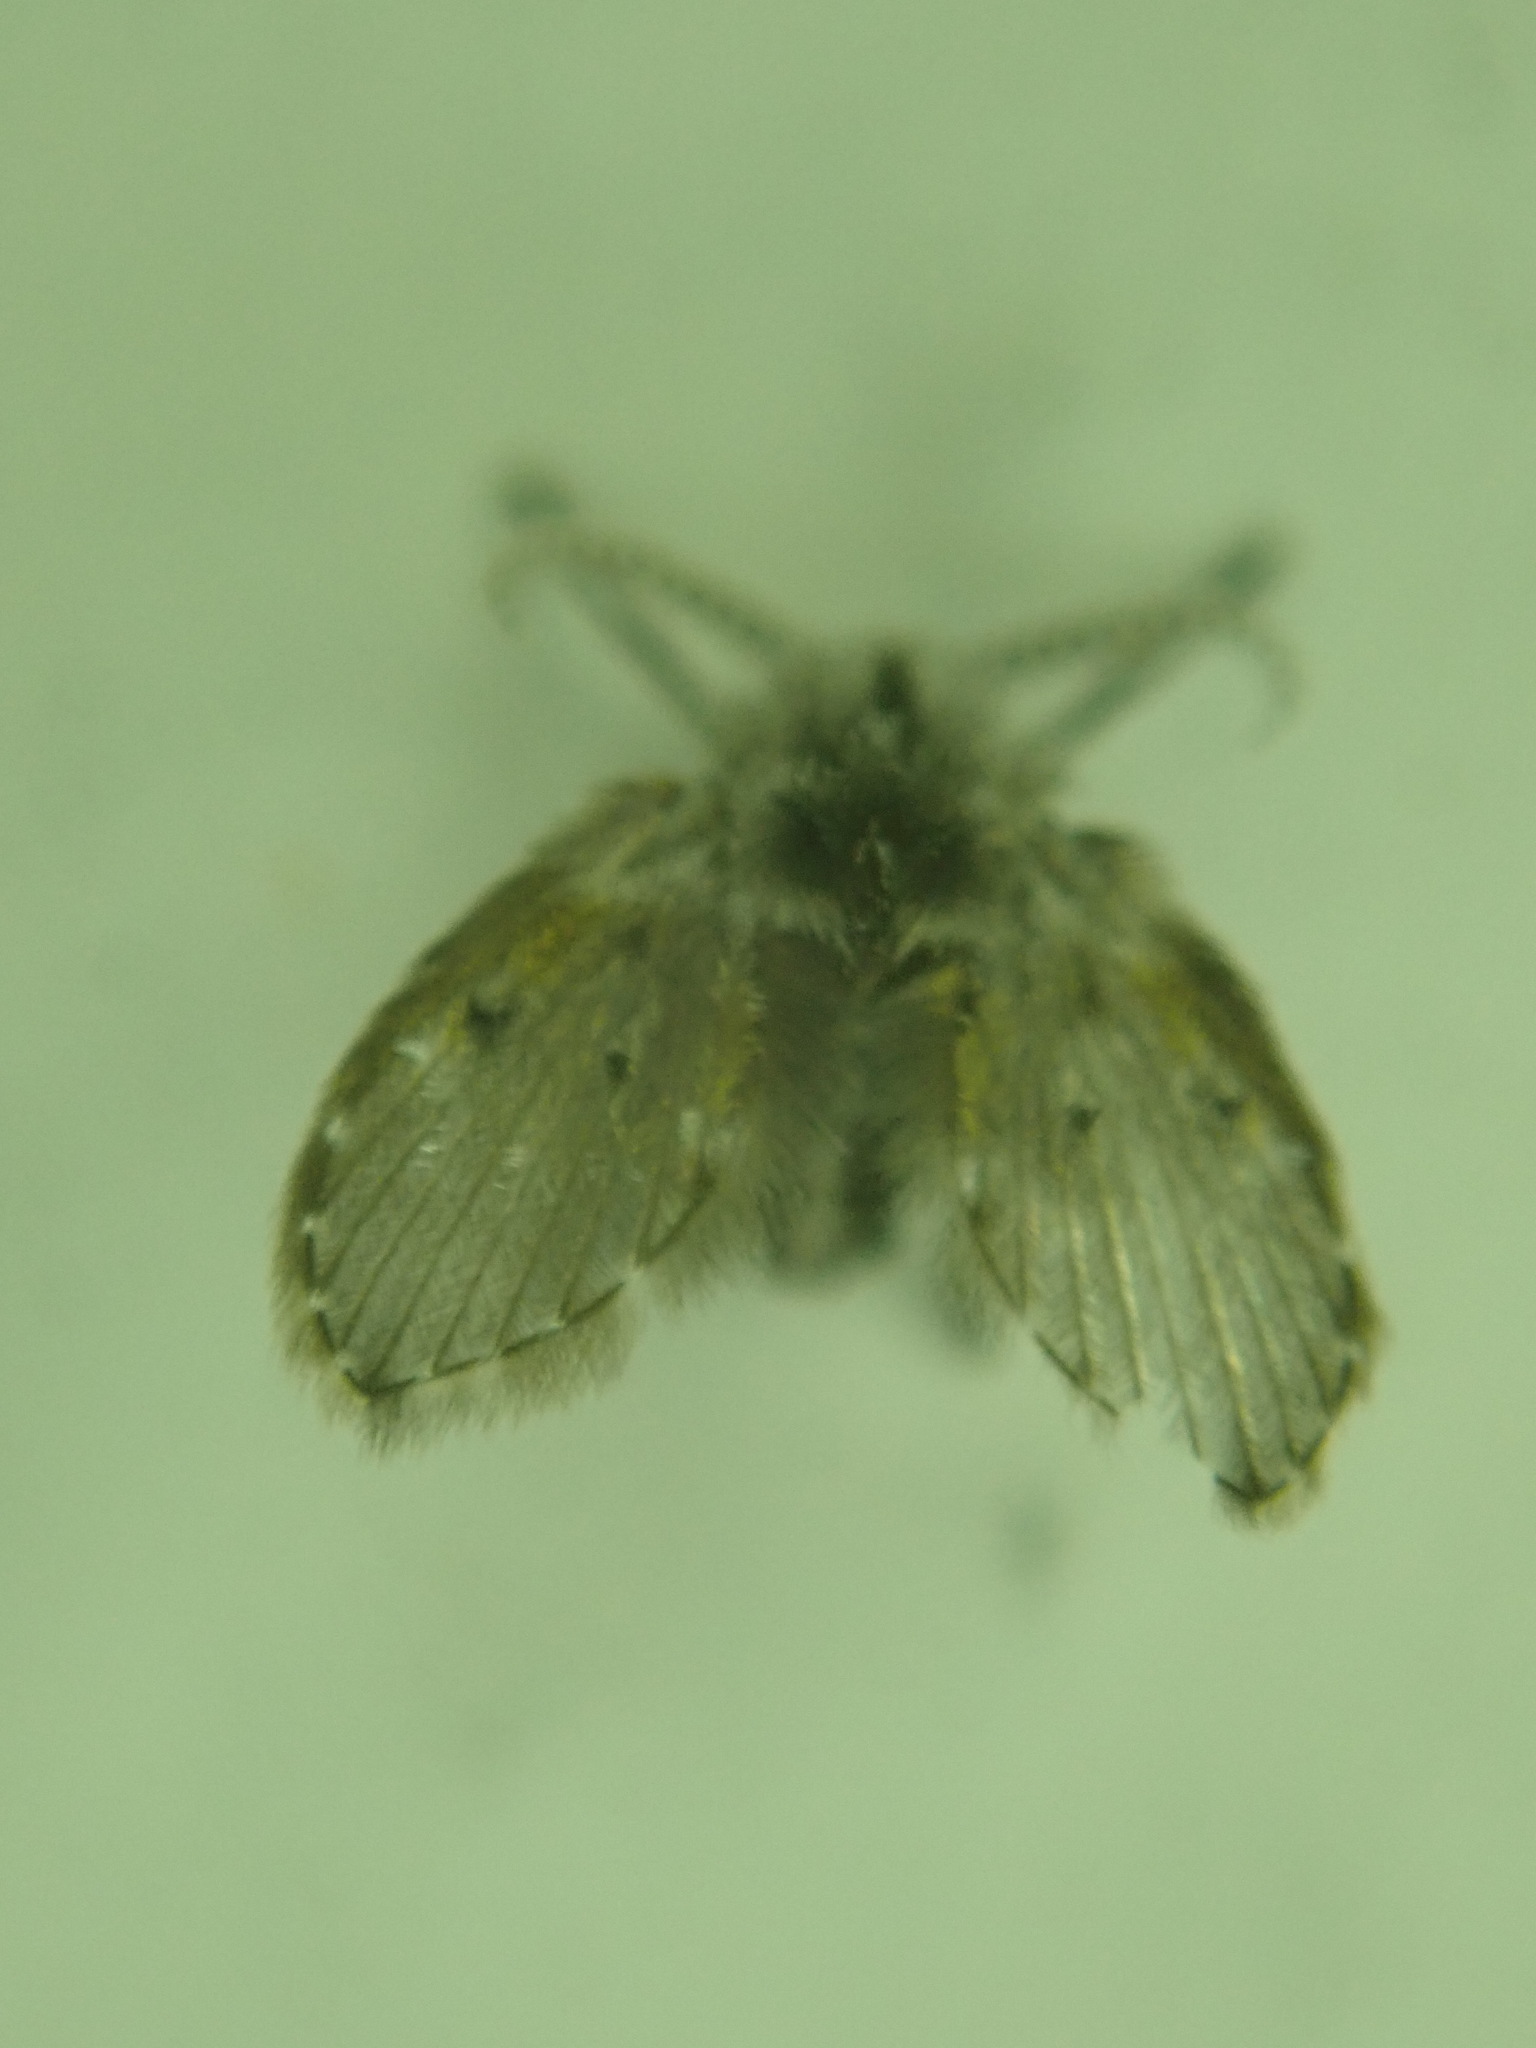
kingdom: Animalia
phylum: Arthropoda
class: Insecta
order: Diptera
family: Psychodidae
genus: Clogmia
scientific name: Clogmia albipunctatus
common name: White-spotted moth fly
